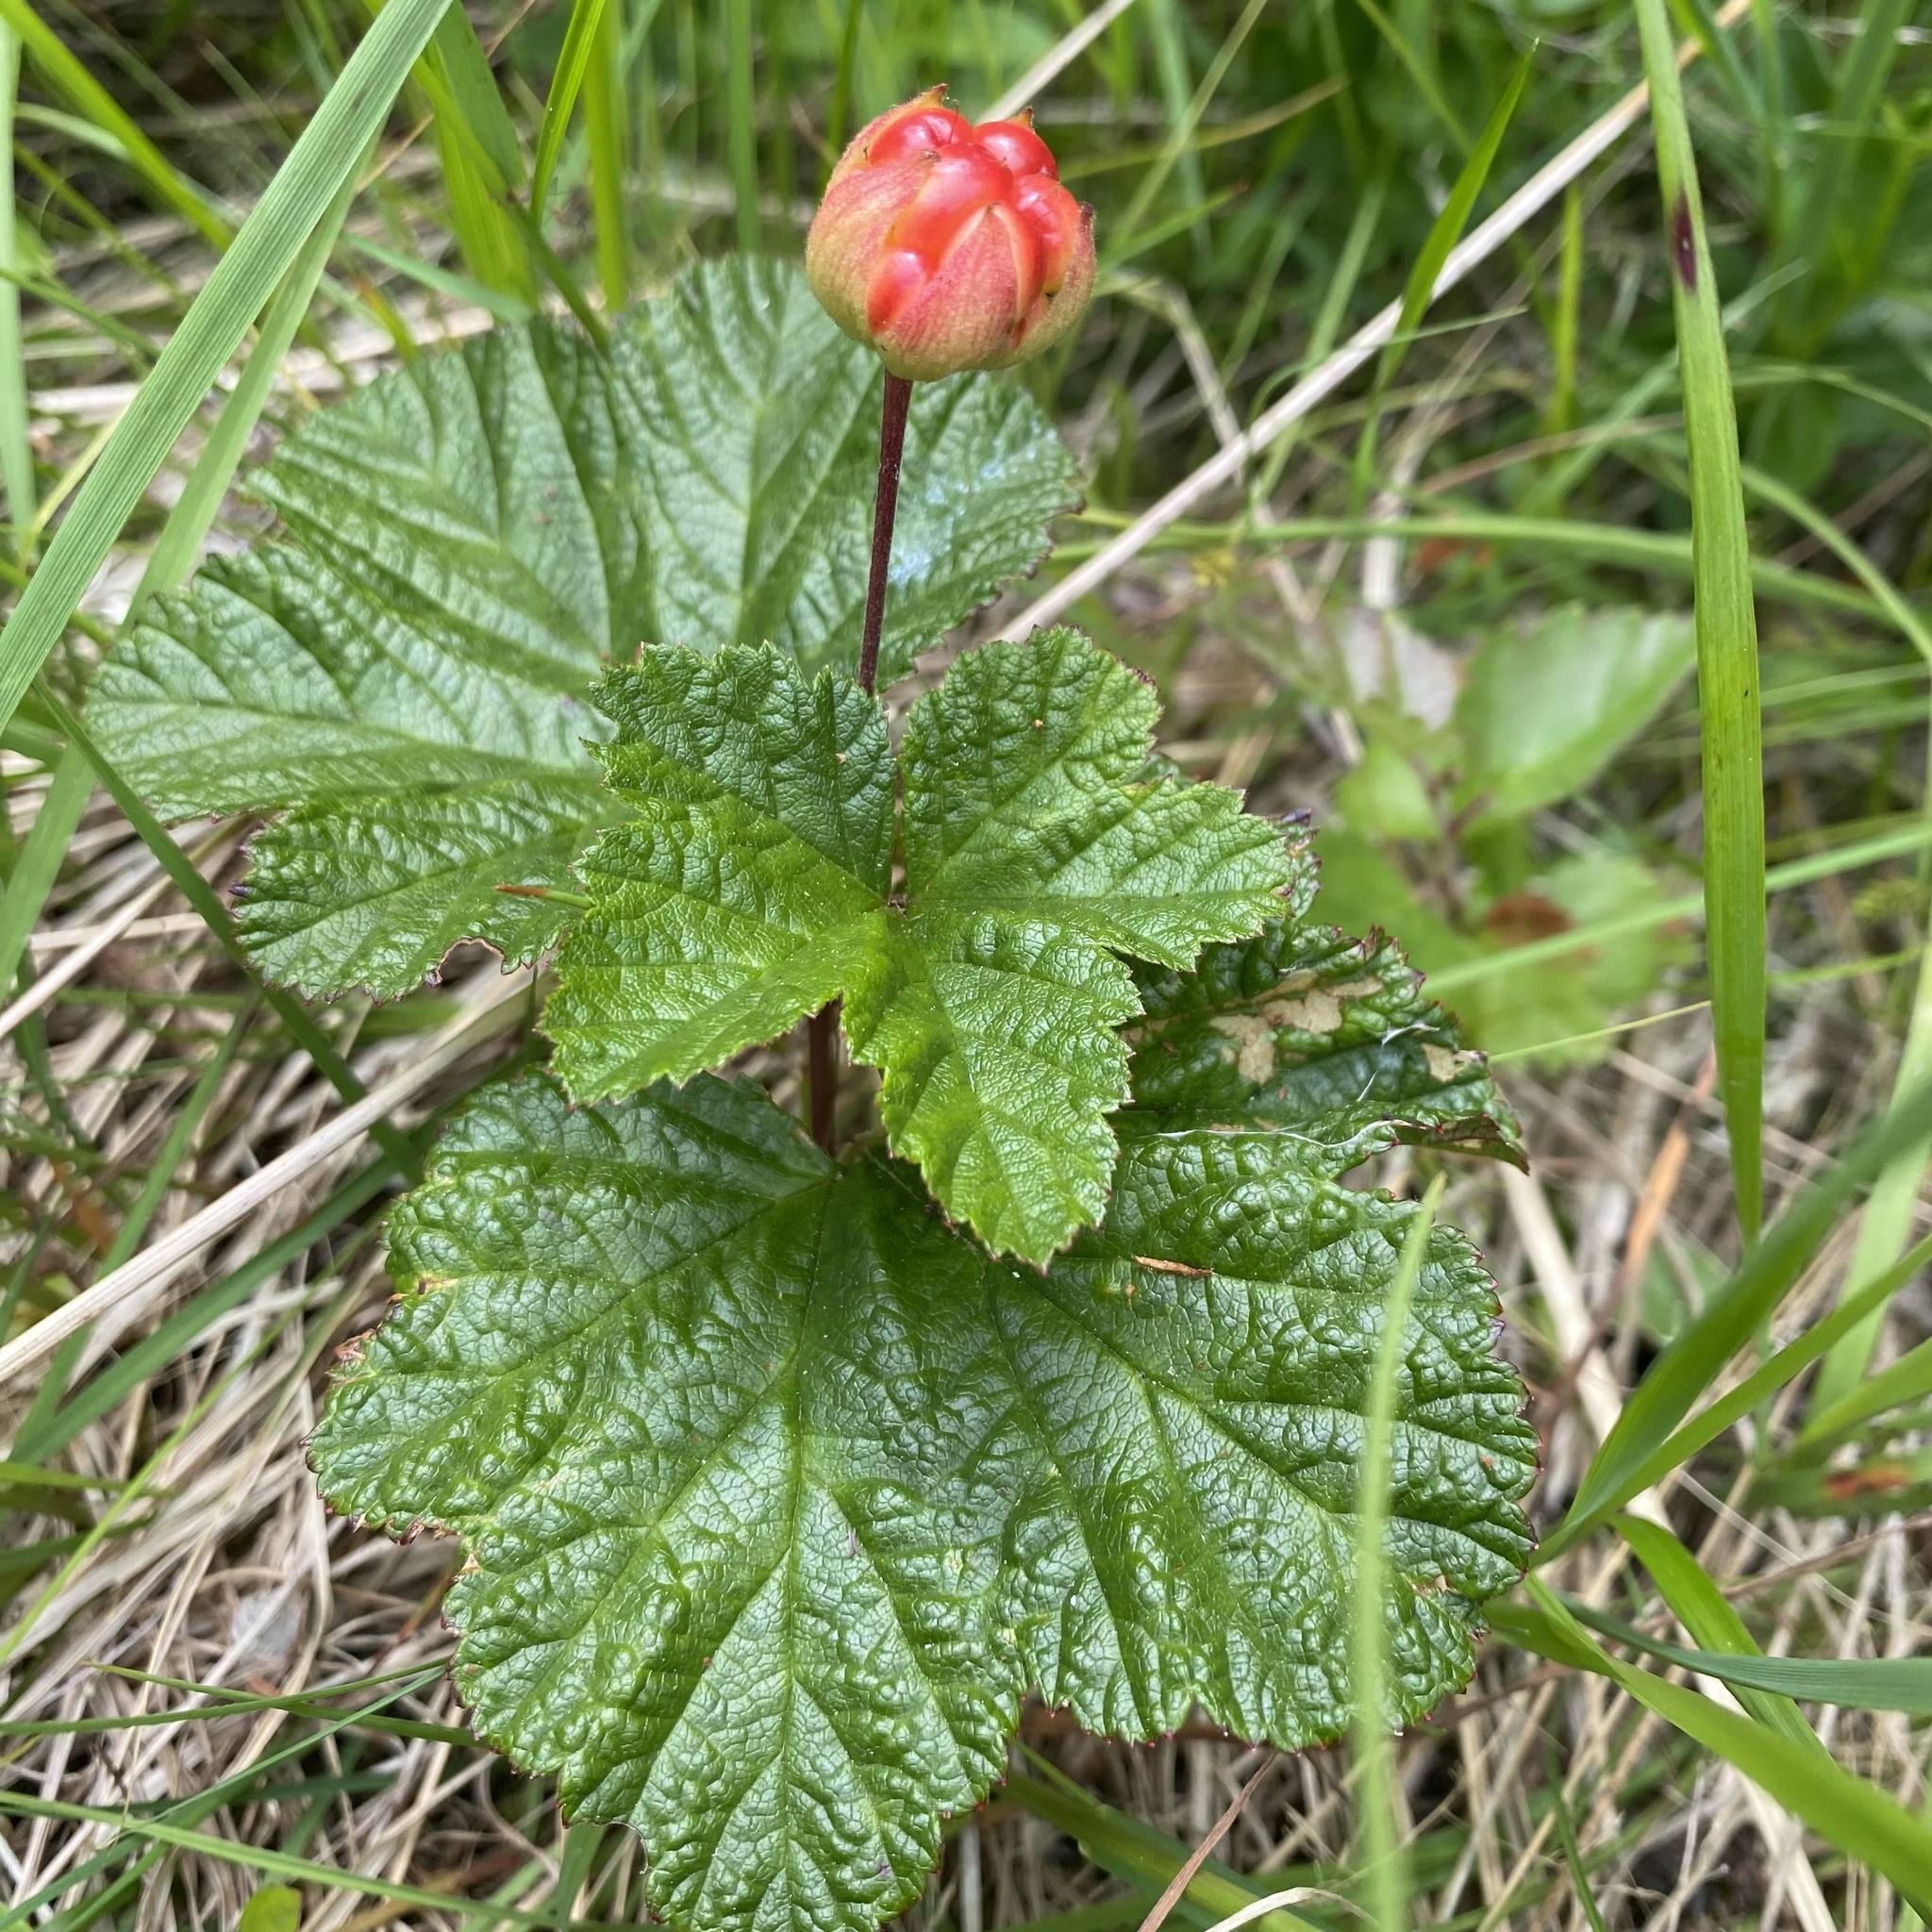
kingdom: Plantae
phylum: Tracheophyta
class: Magnoliopsida
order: Rosales
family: Rosaceae
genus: Rubus
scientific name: Rubus chamaemorus
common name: Cloudberry
